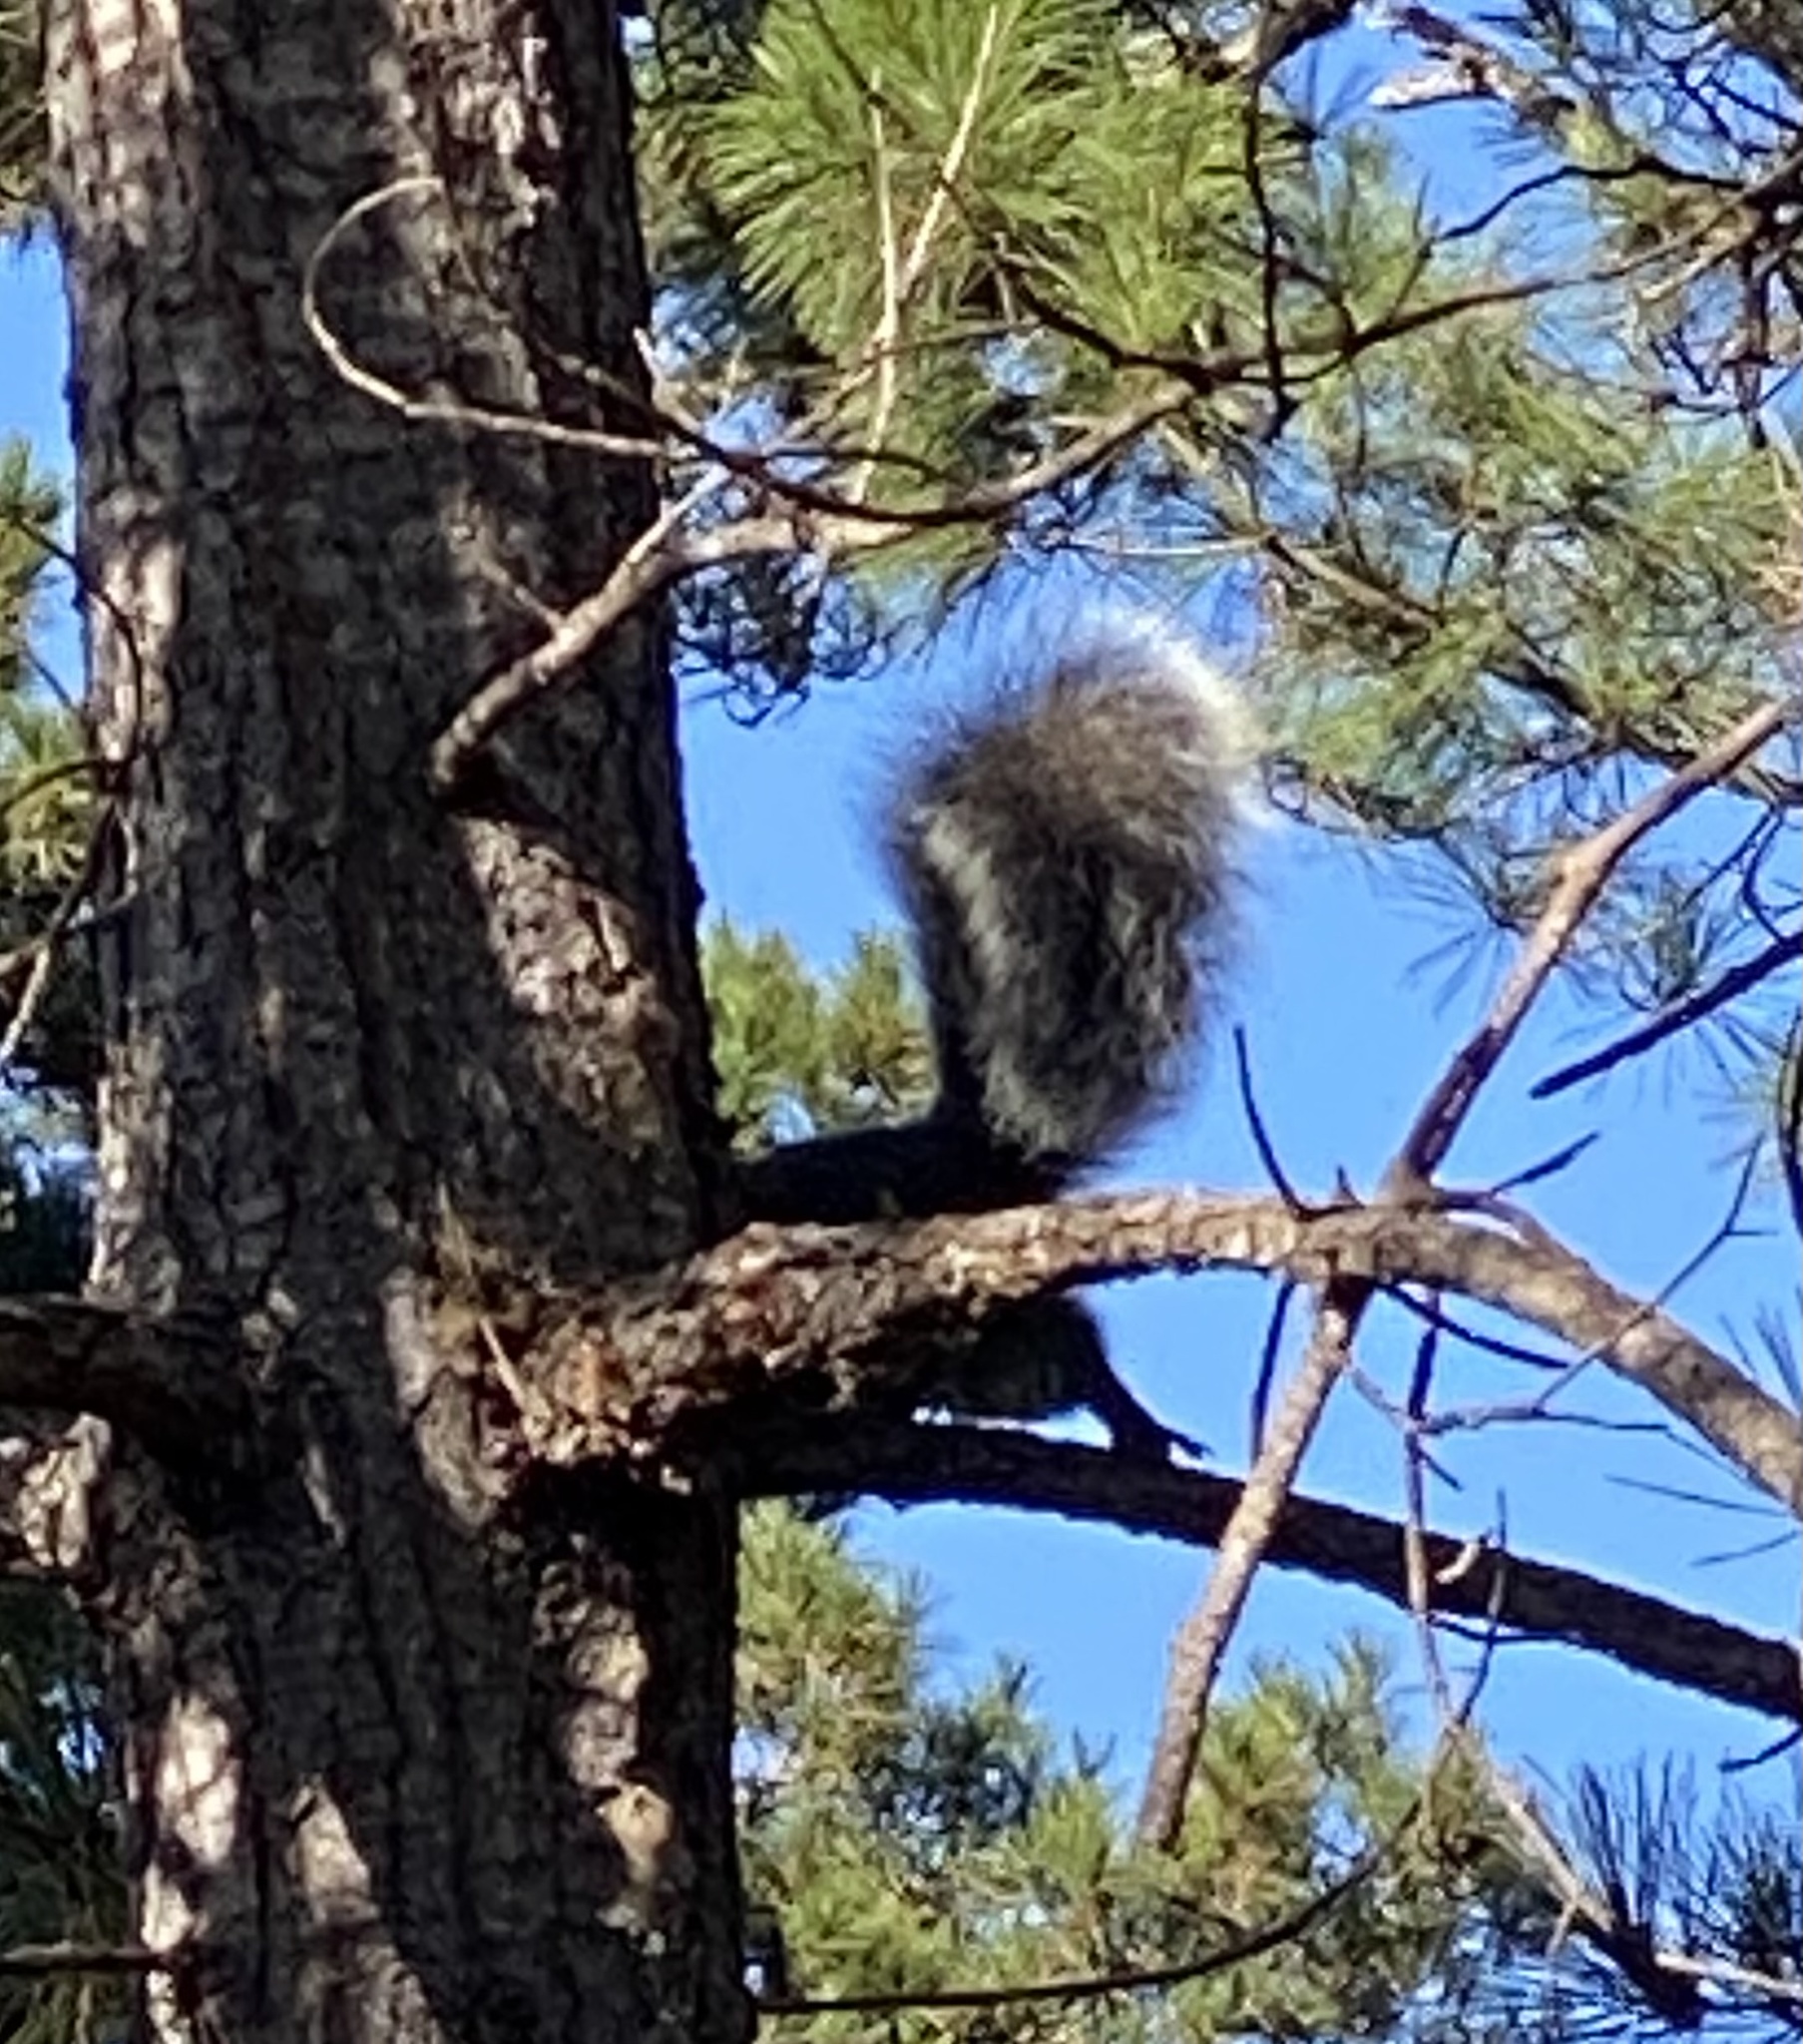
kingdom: Animalia
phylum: Chordata
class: Mammalia
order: Rodentia
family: Sciuridae
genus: Sciurus
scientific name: Sciurus griseus
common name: Western gray squirrel
